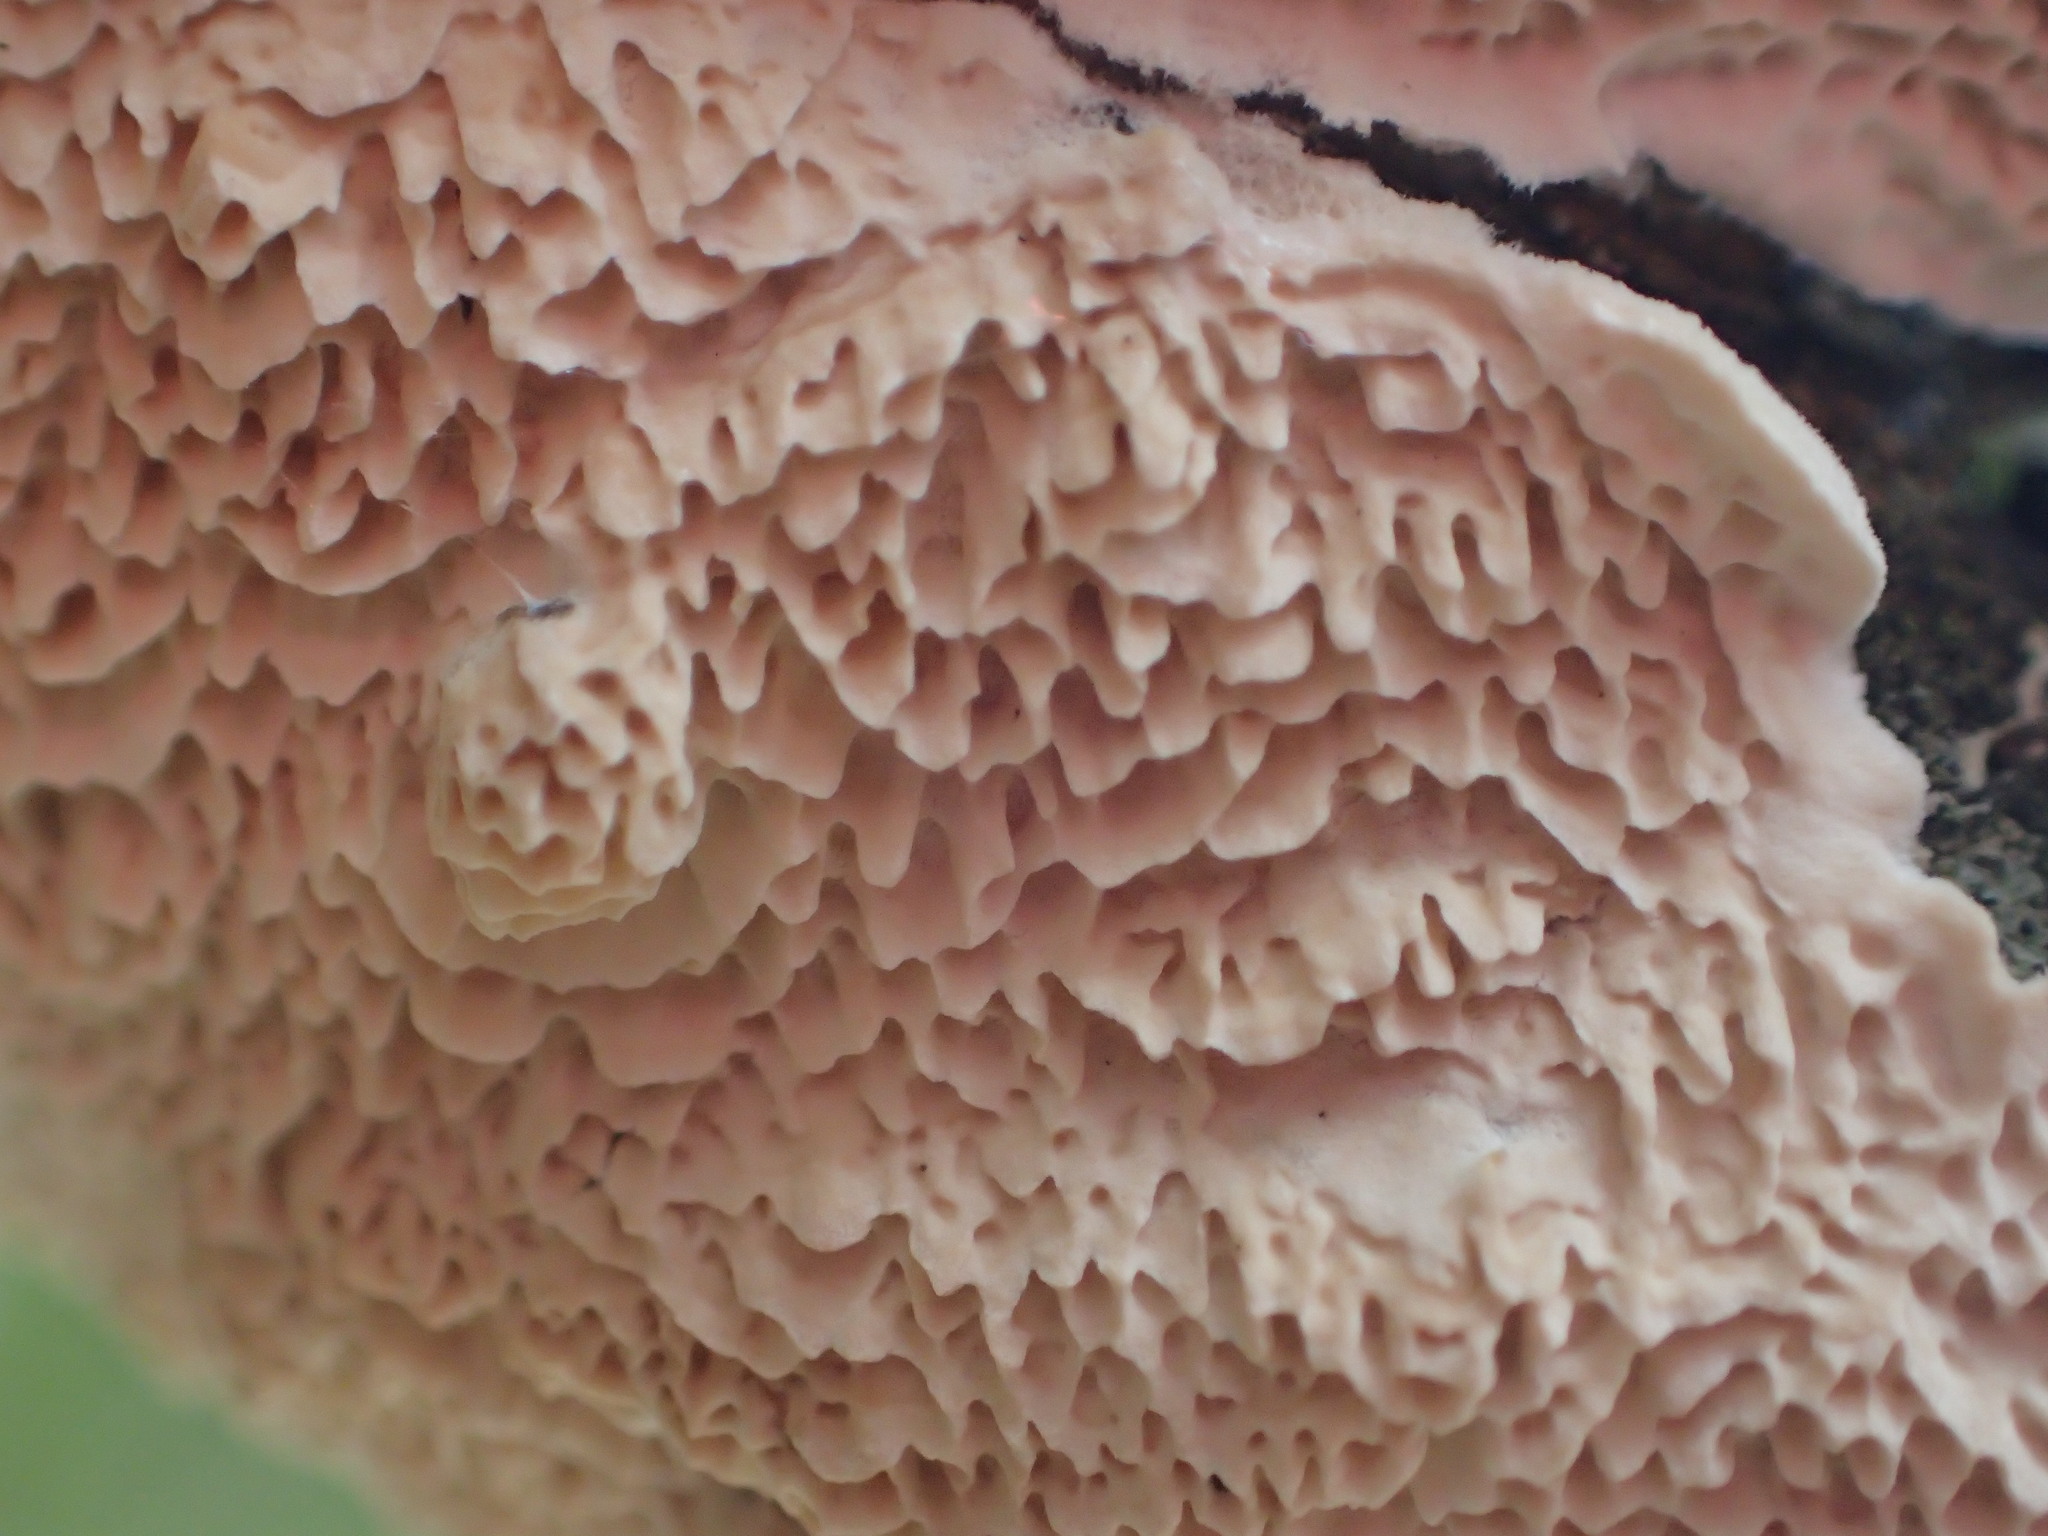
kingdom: Fungi
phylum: Basidiomycota
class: Agaricomycetes
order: Polyporales
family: Irpicaceae
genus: Irpex
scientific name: Irpex lacteus
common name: Milk-white toothed polypore
